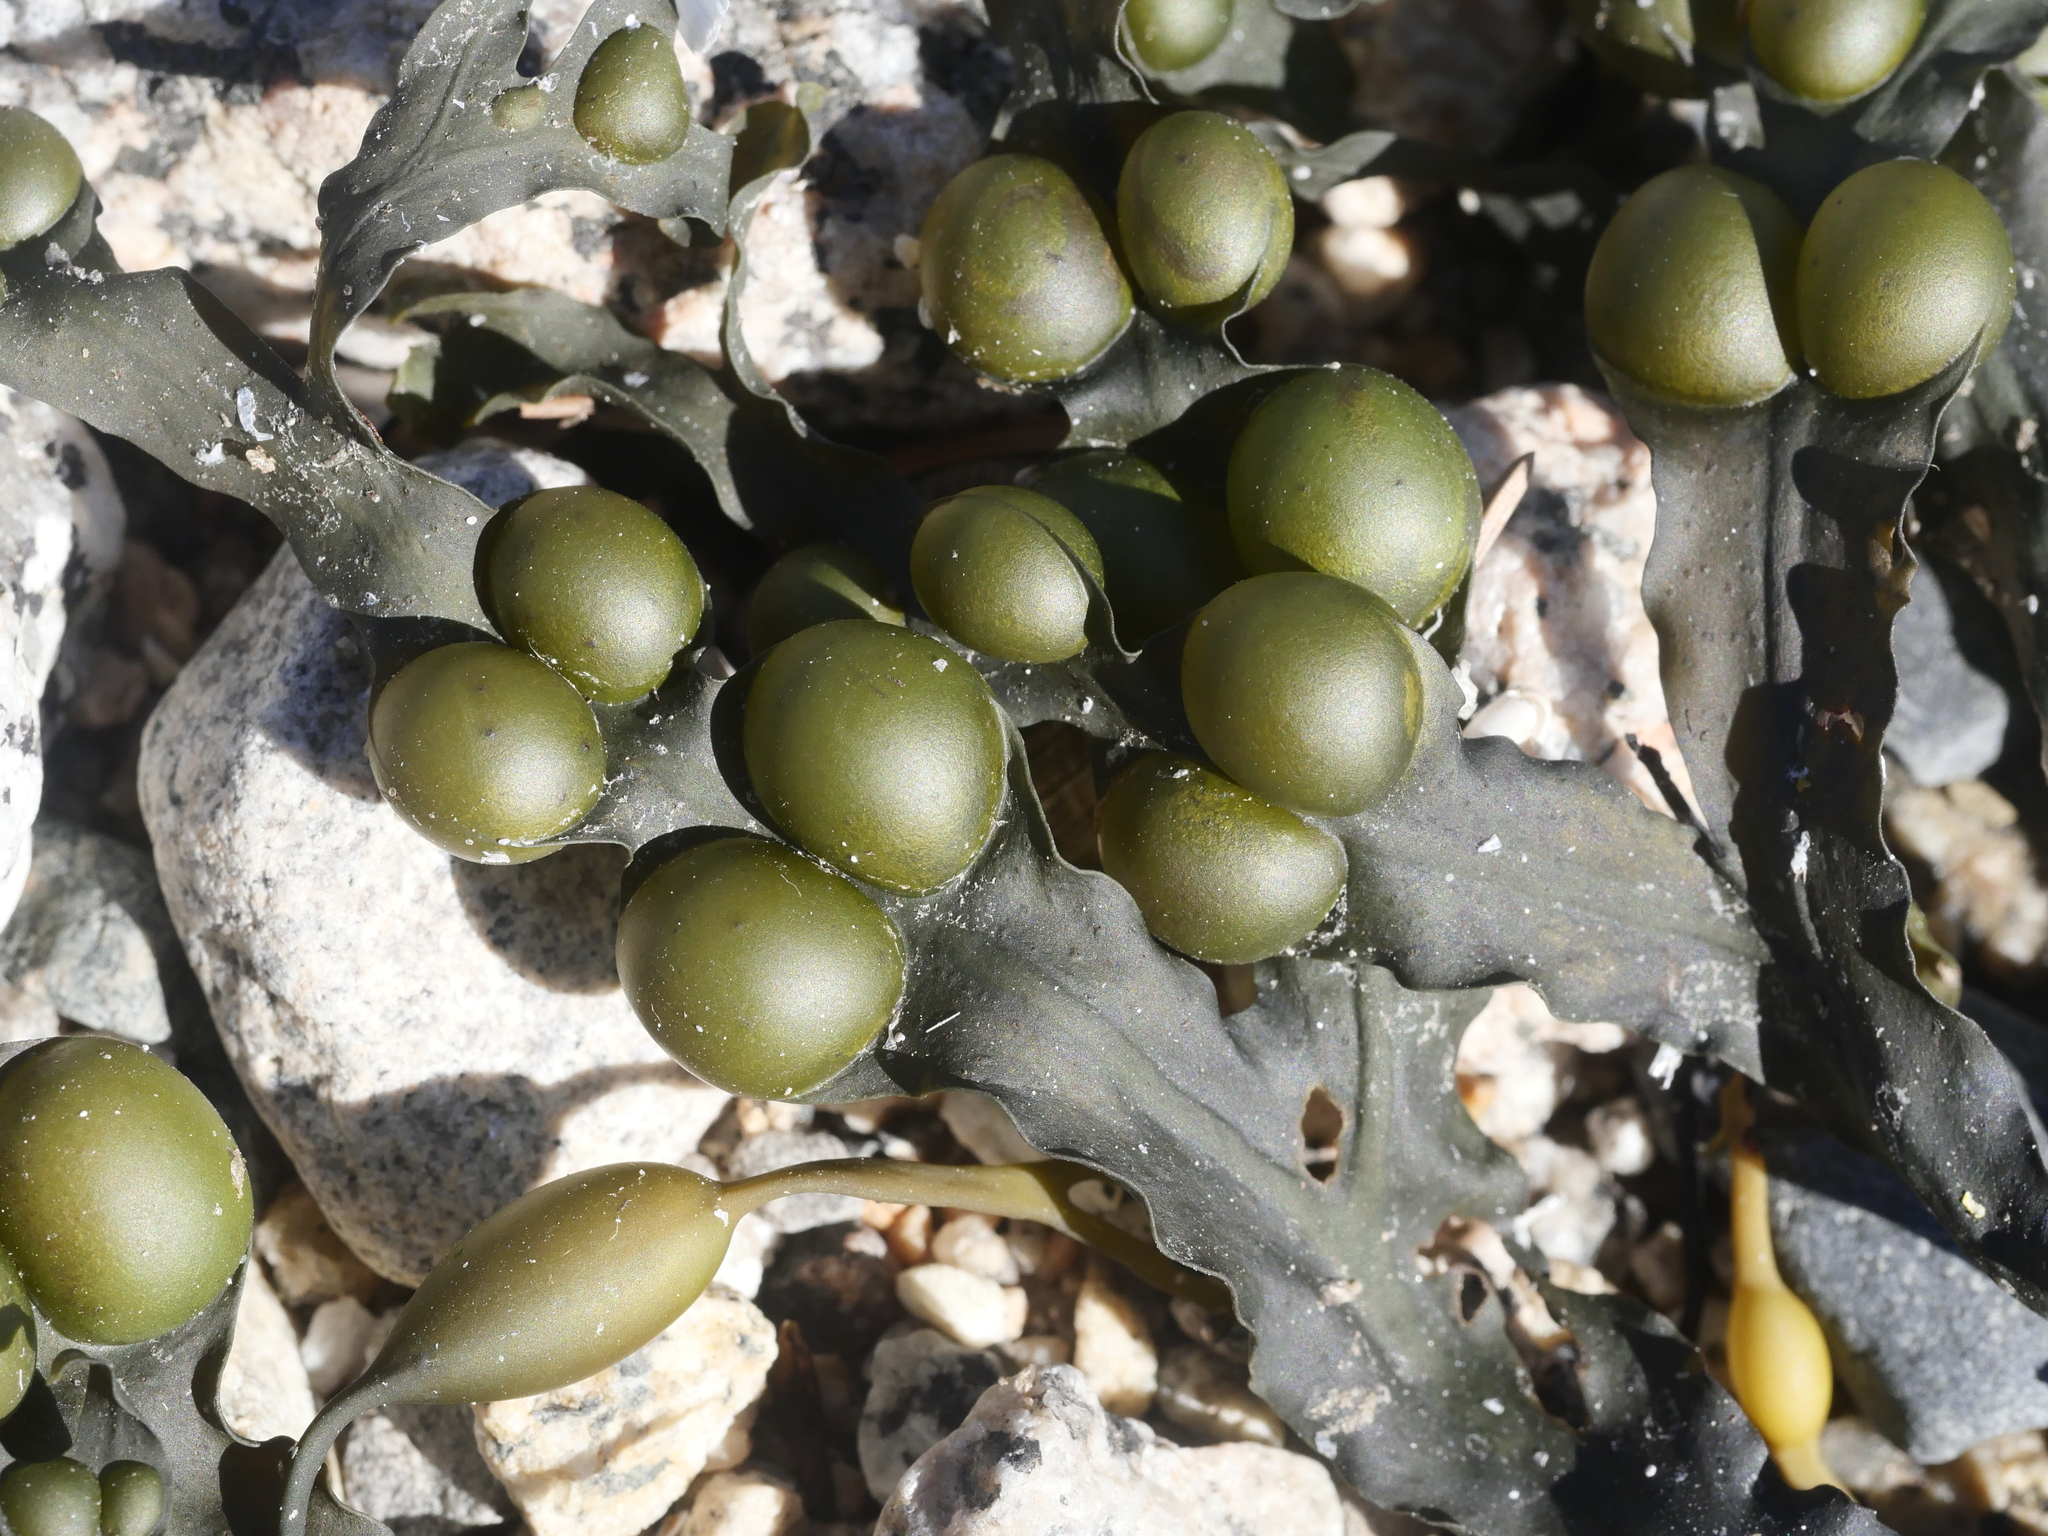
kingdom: Chromista
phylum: Ochrophyta
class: Phaeophyceae
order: Fucales
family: Fucaceae
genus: Fucus
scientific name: Fucus vesiculosus
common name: Bladder wrack
